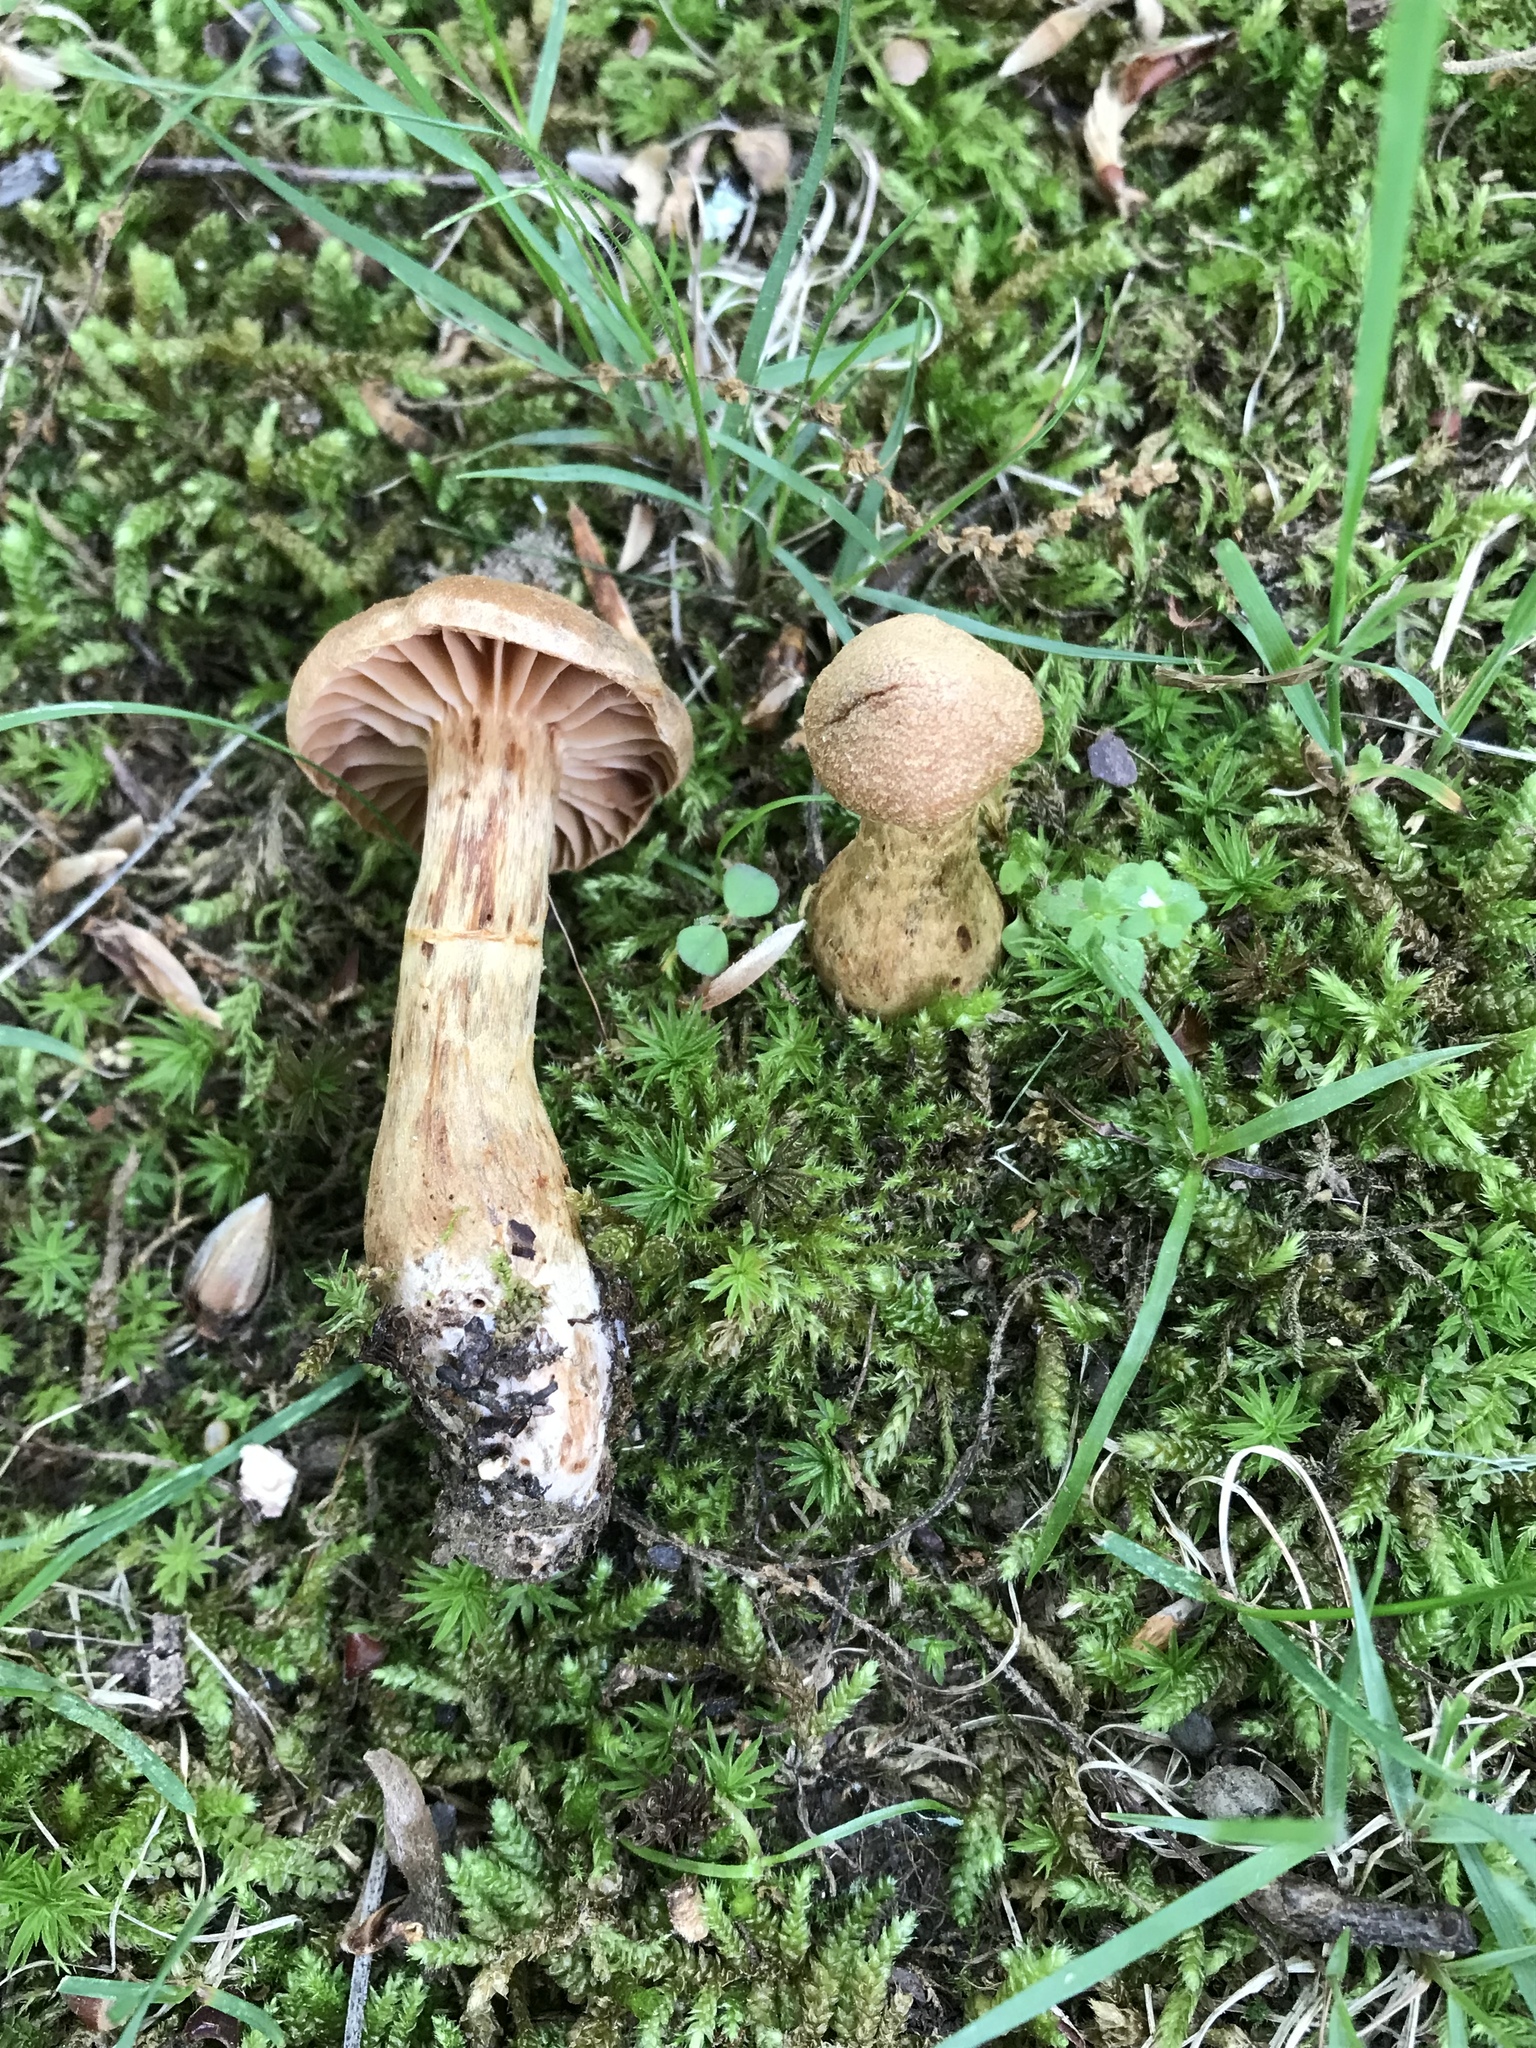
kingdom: Fungi
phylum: Basidiomycota
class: Agaricomycetes
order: Agaricales
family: Cortinariaceae
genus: Cortinarius
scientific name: Cortinarius
